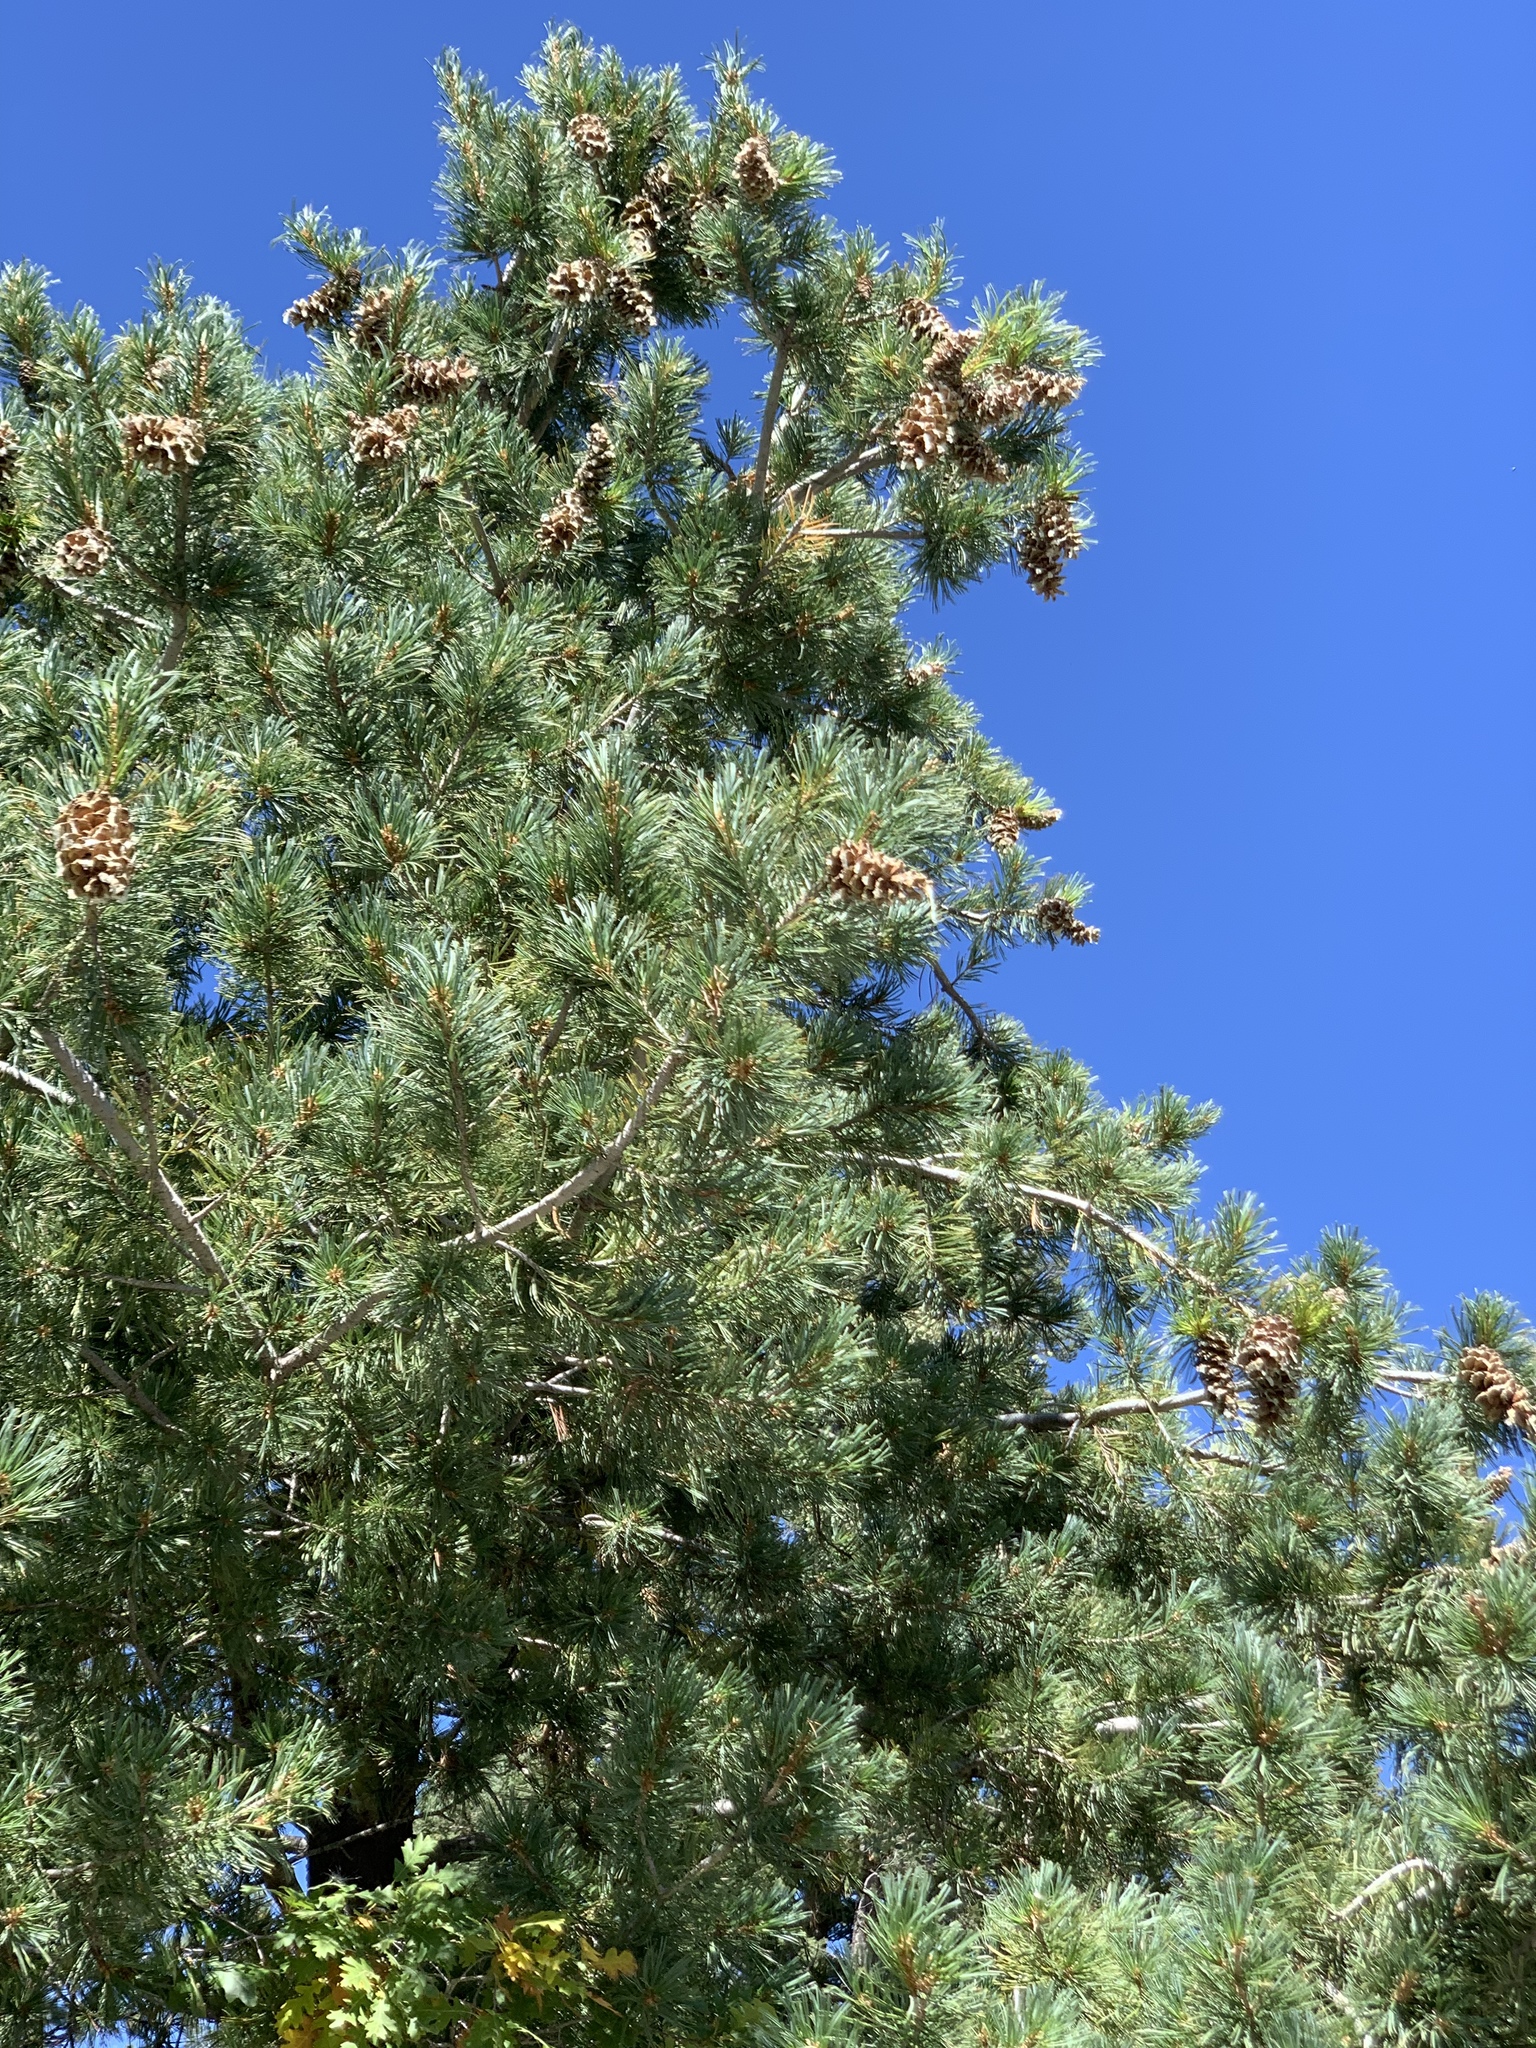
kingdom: Plantae
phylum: Tracheophyta
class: Pinopsida
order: Pinales
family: Pinaceae
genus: Pinus
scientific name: Pinus strobiformis
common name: Southwestern white pine
